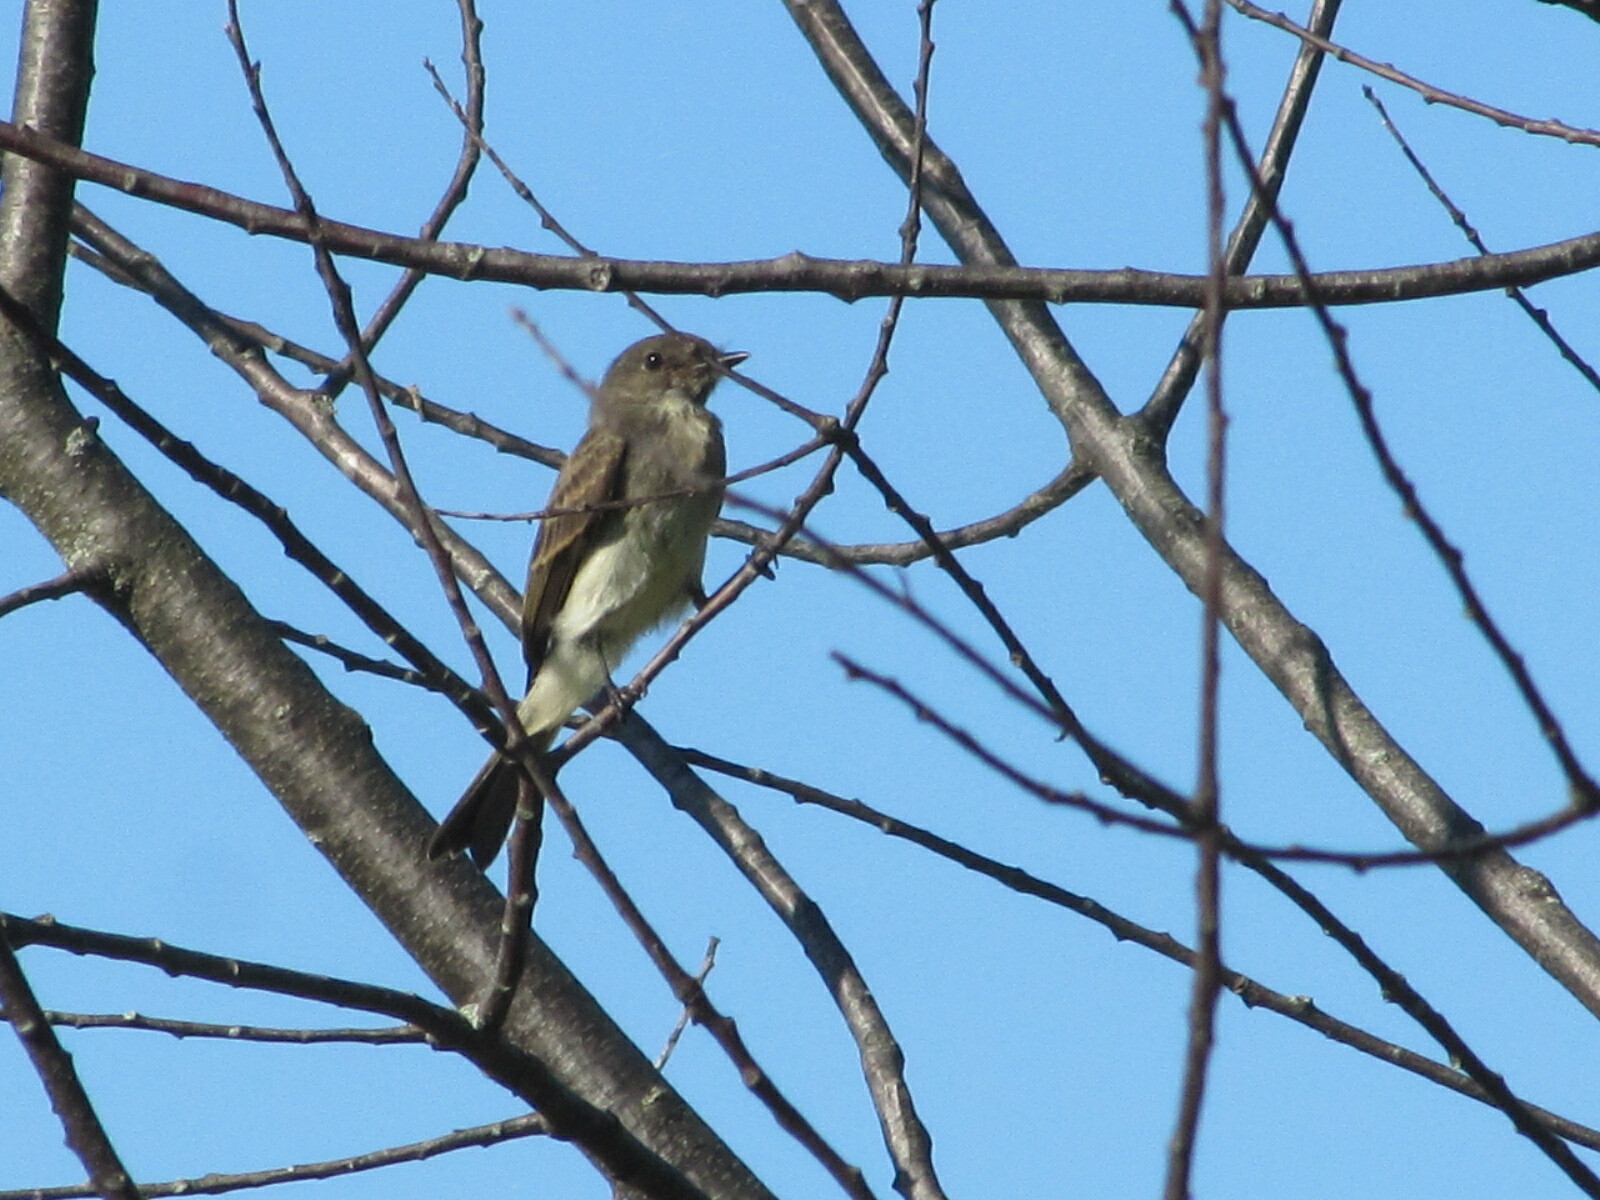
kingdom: Animalia
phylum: Chordata
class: Aves
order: Passeriformes
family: Tyrannidae
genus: Sayornis
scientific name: Sayornis phoebe
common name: Eastern phoebe
